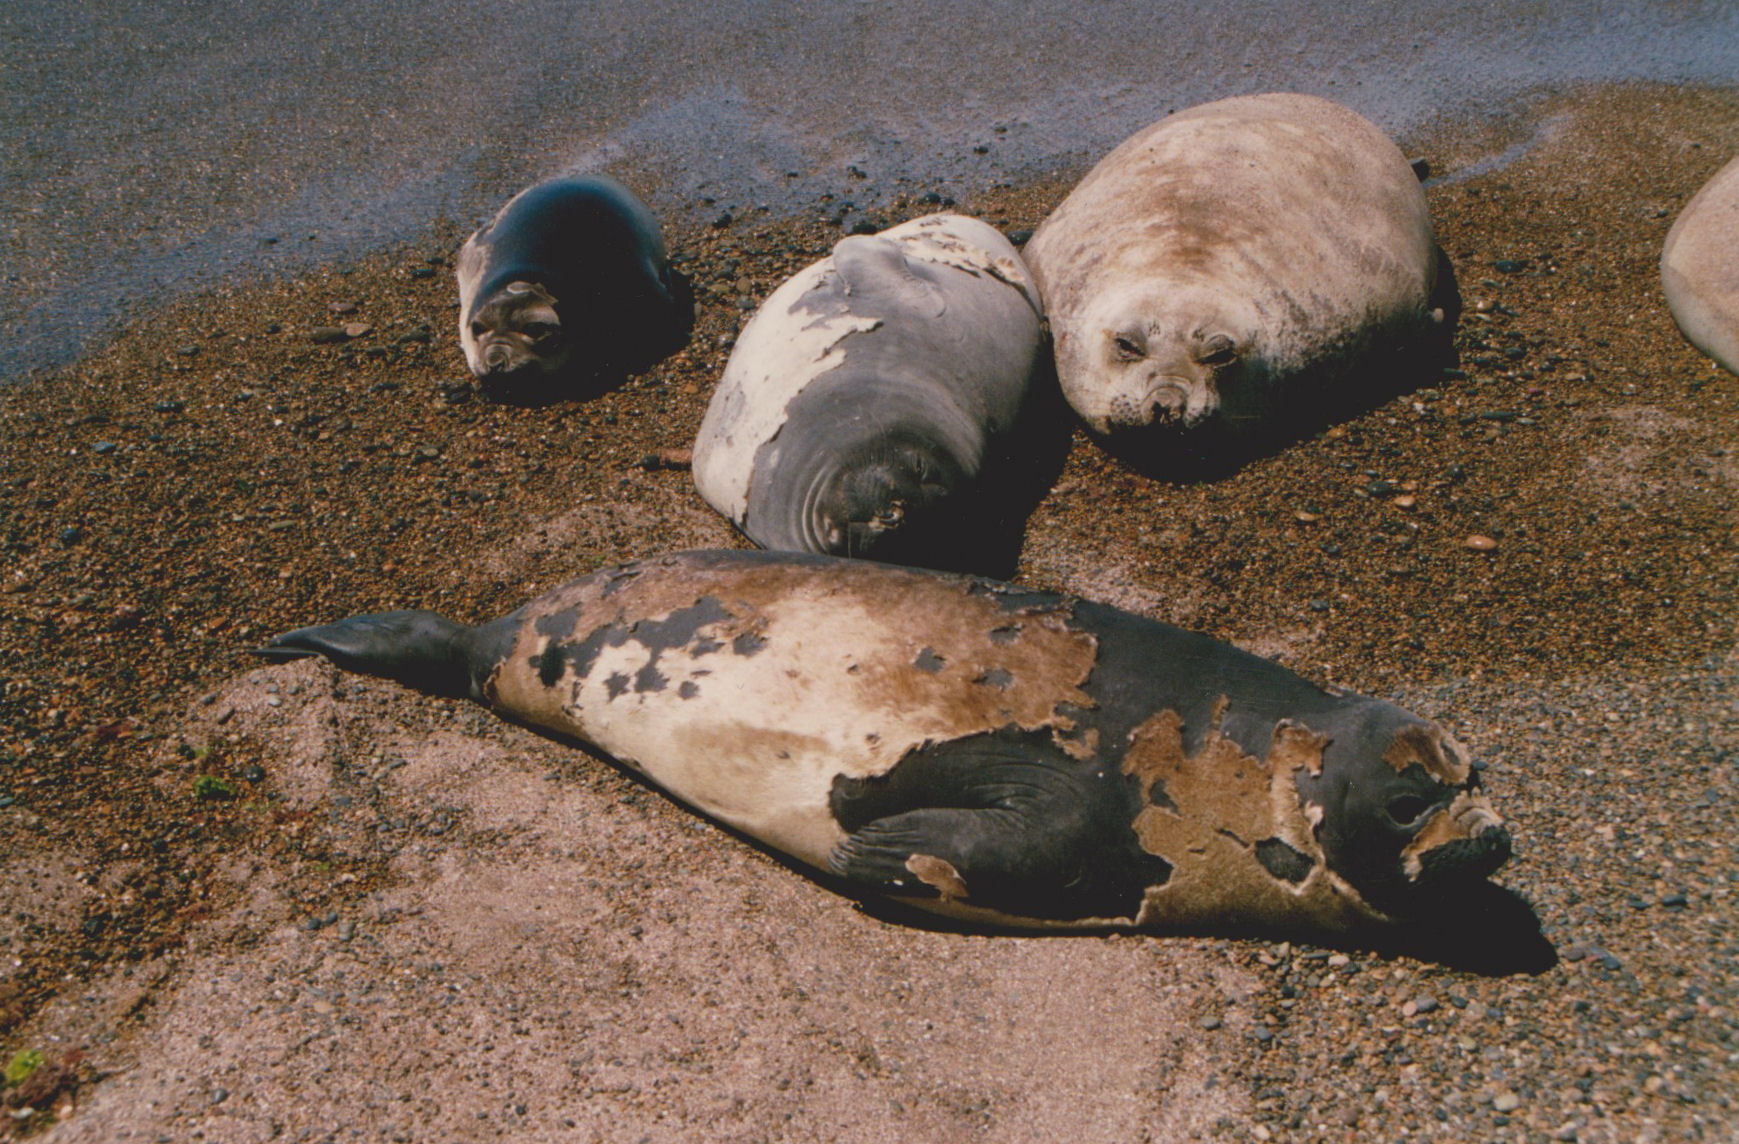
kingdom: Animalia
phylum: Chordata
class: Mammalia
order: Carnivora
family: Phocidae
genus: Mirounga
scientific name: Mirounga leonina
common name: Southern elephant seal
